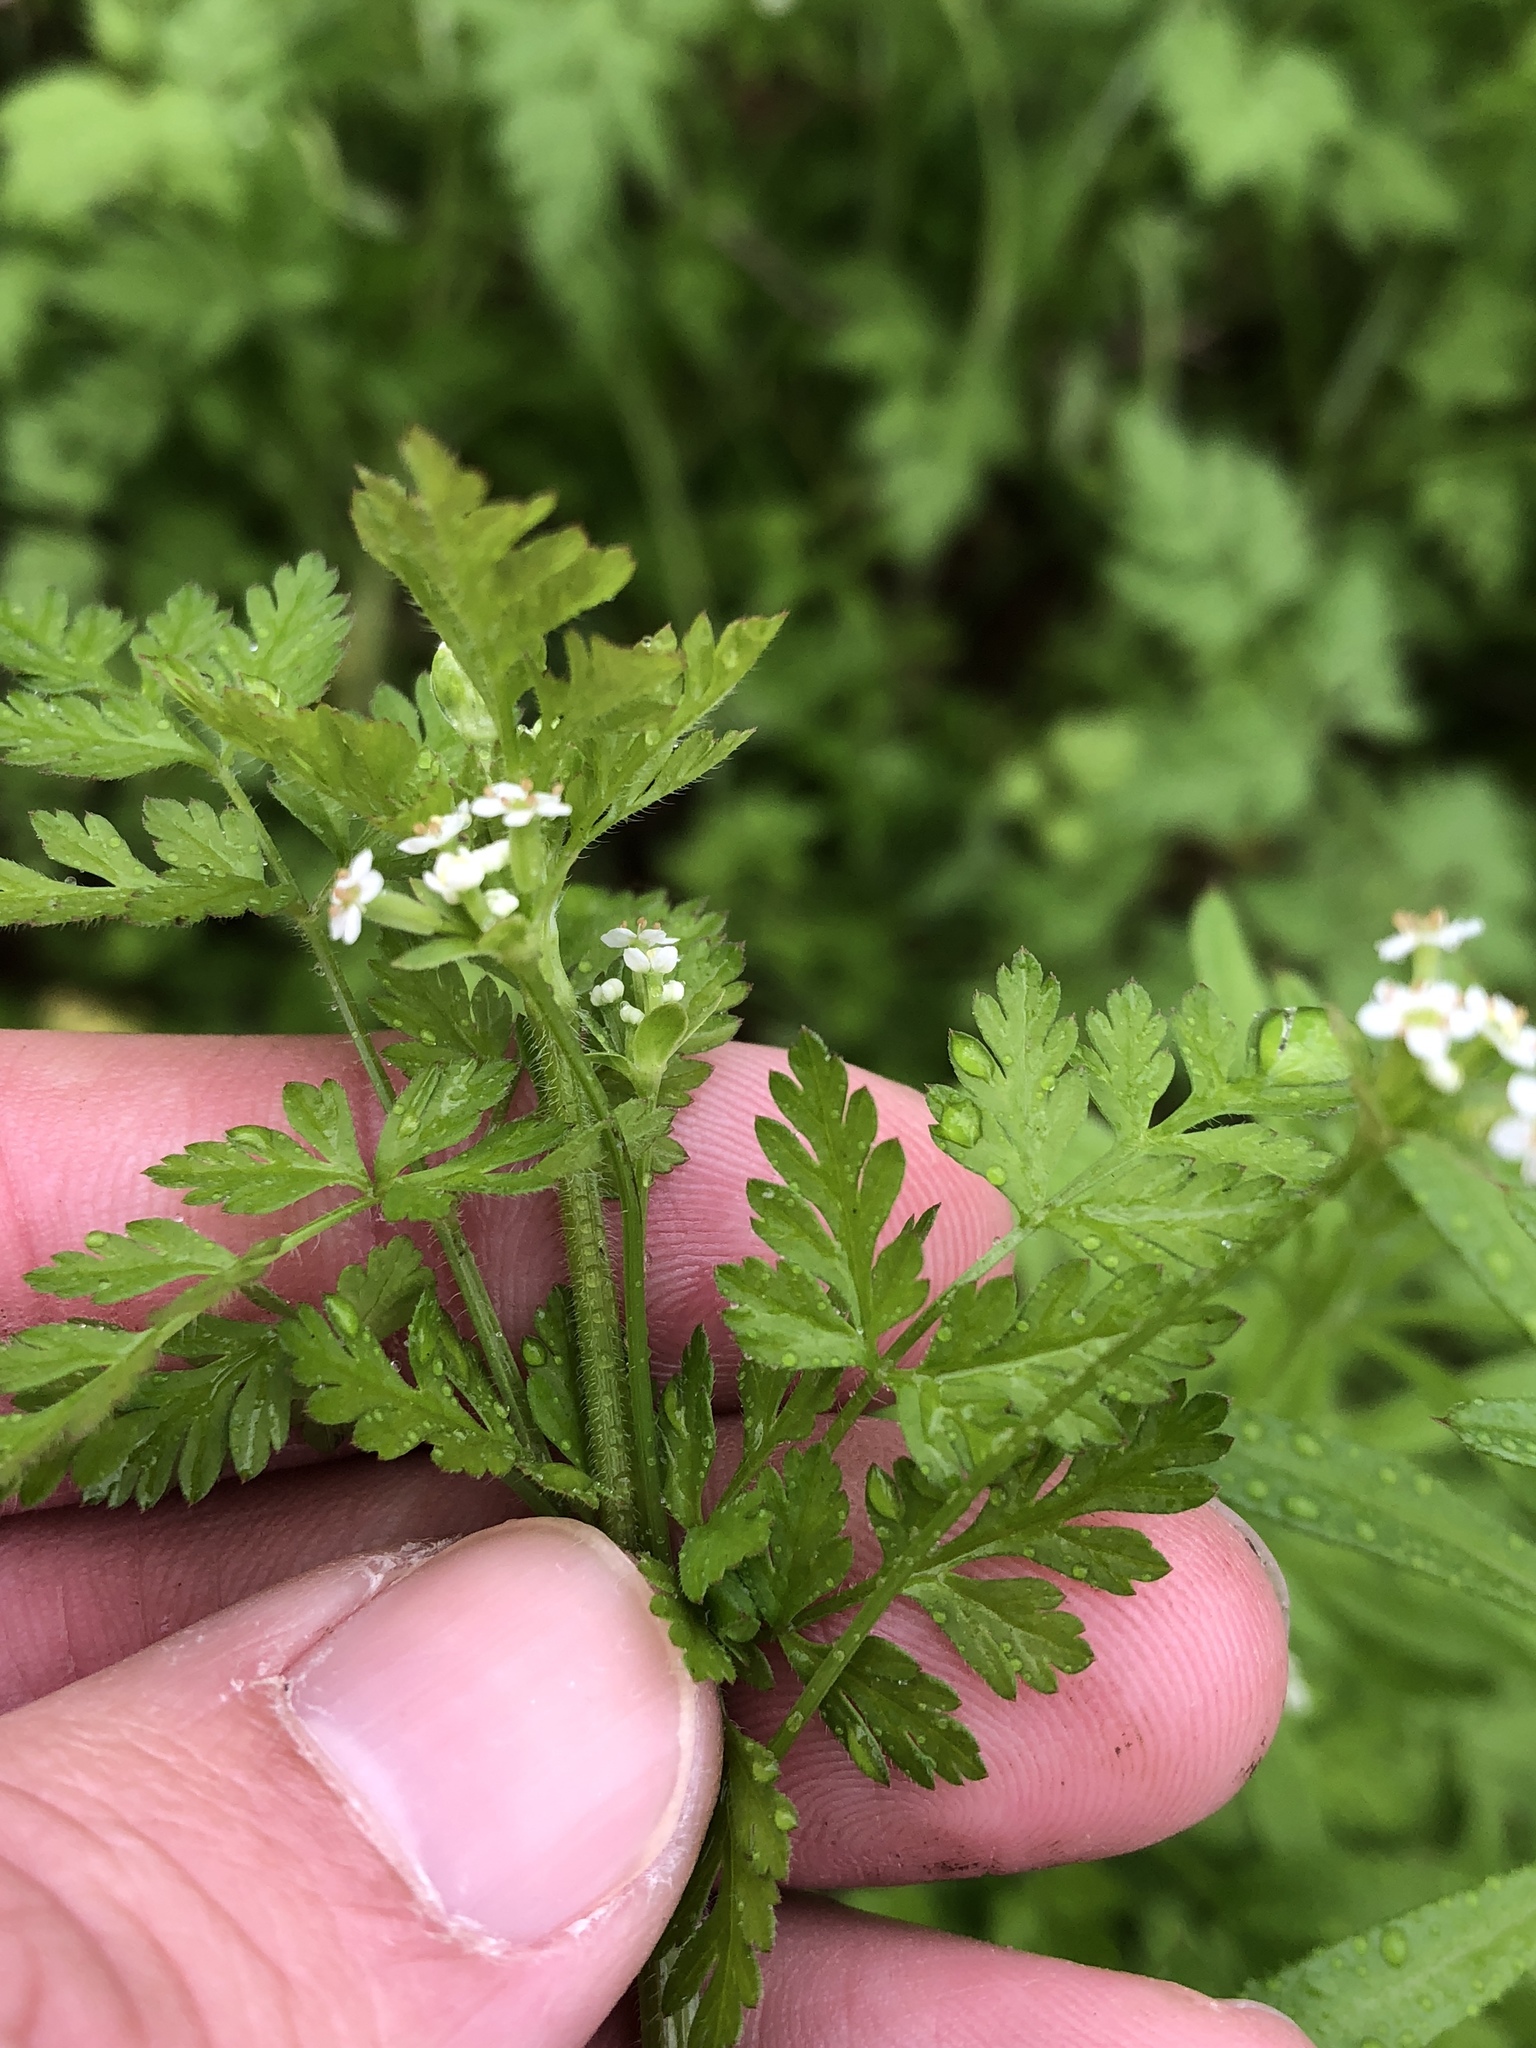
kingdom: Plantae
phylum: Tracheophyta
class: Magnoliopsida
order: Apiales
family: Apiaceae
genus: Chaerophyllum
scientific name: Chaerophyllum tainturieri
